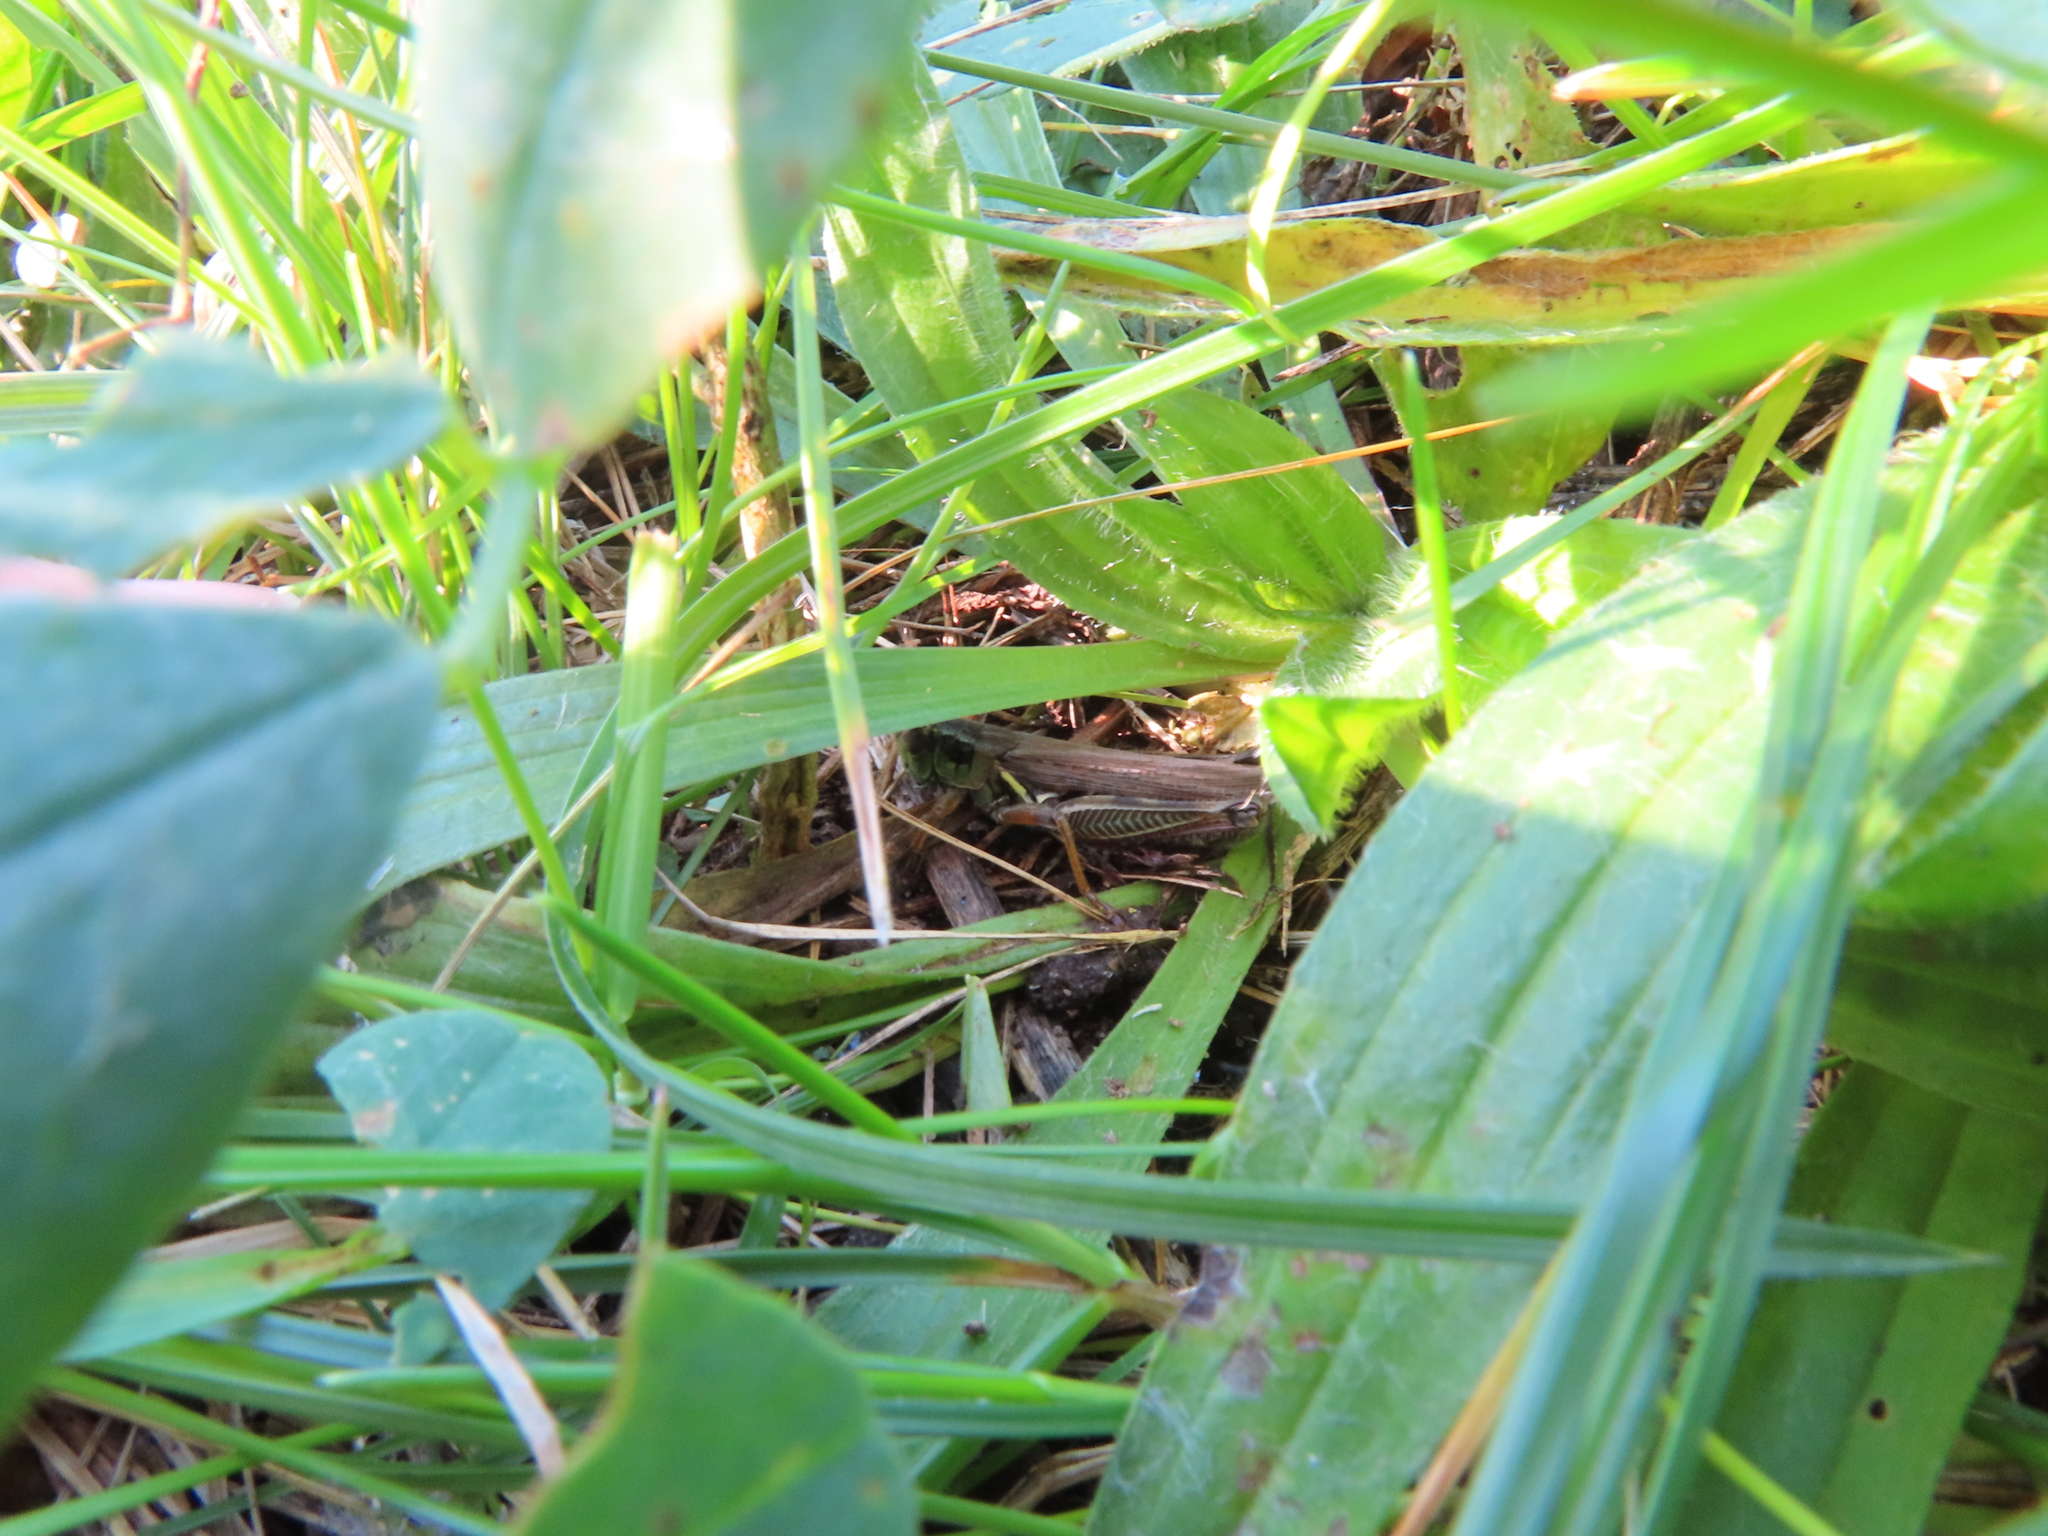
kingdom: Animalia
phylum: Arthropoda
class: Insecta
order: Orthoptera
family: Acrididae
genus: Melanoplus
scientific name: Melanoplus femurrubrum
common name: Red-legged grasshopper
